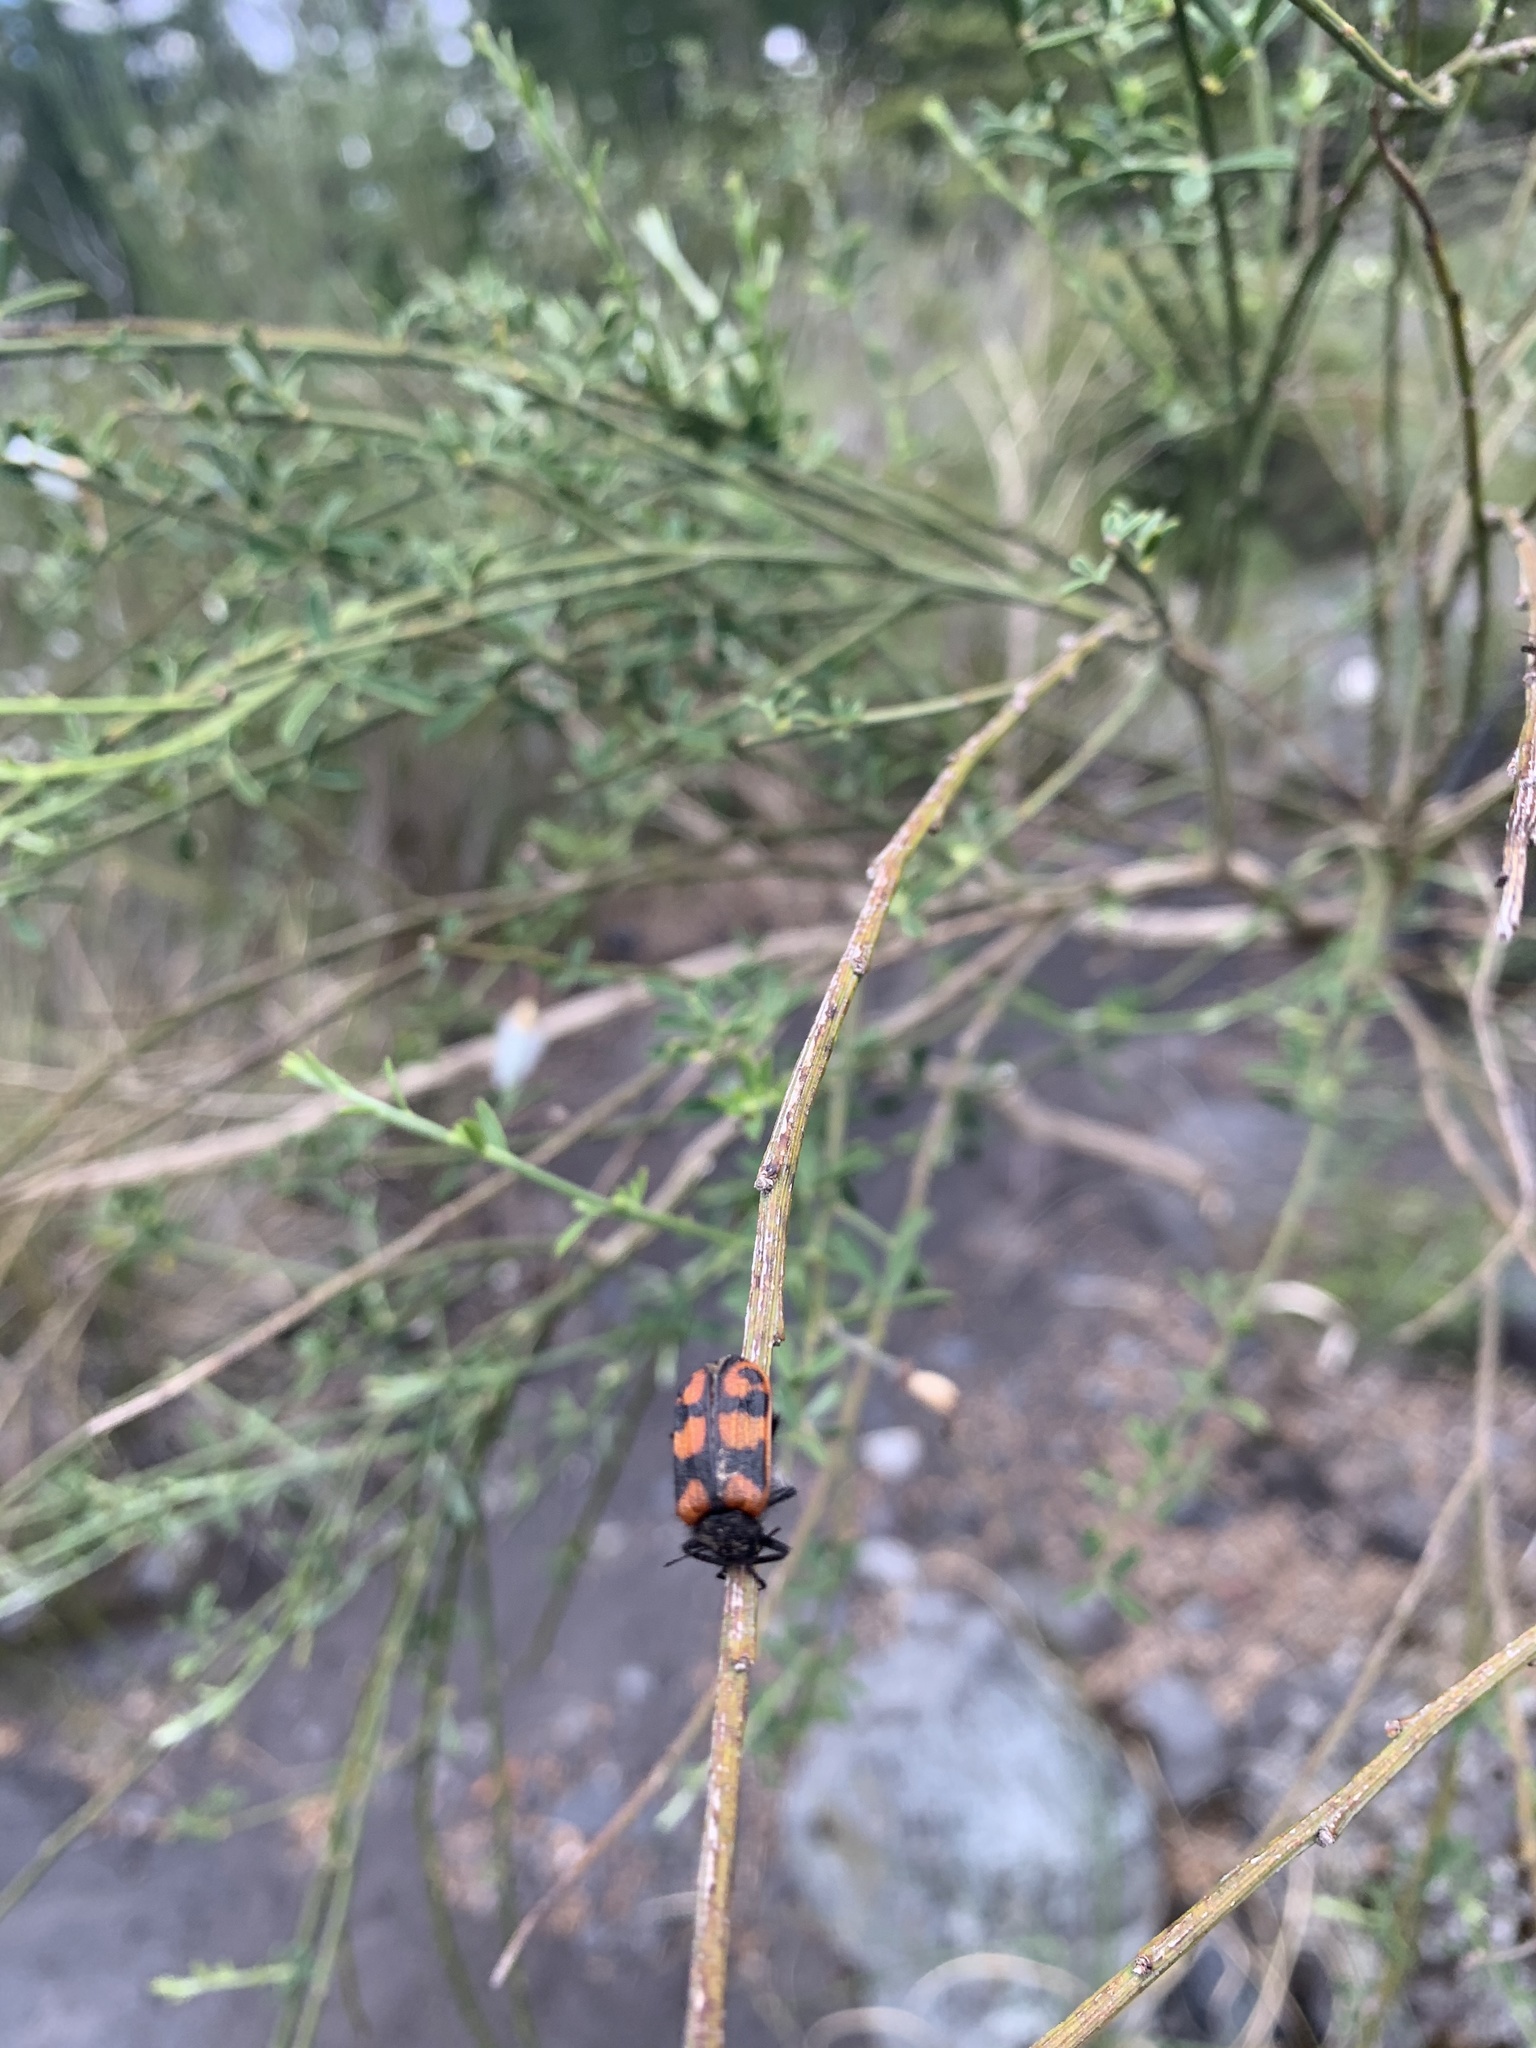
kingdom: Animalia
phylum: Arthropoda
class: Insecta
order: Coleoptera
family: Melyridae
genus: Astylus
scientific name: Astylus
